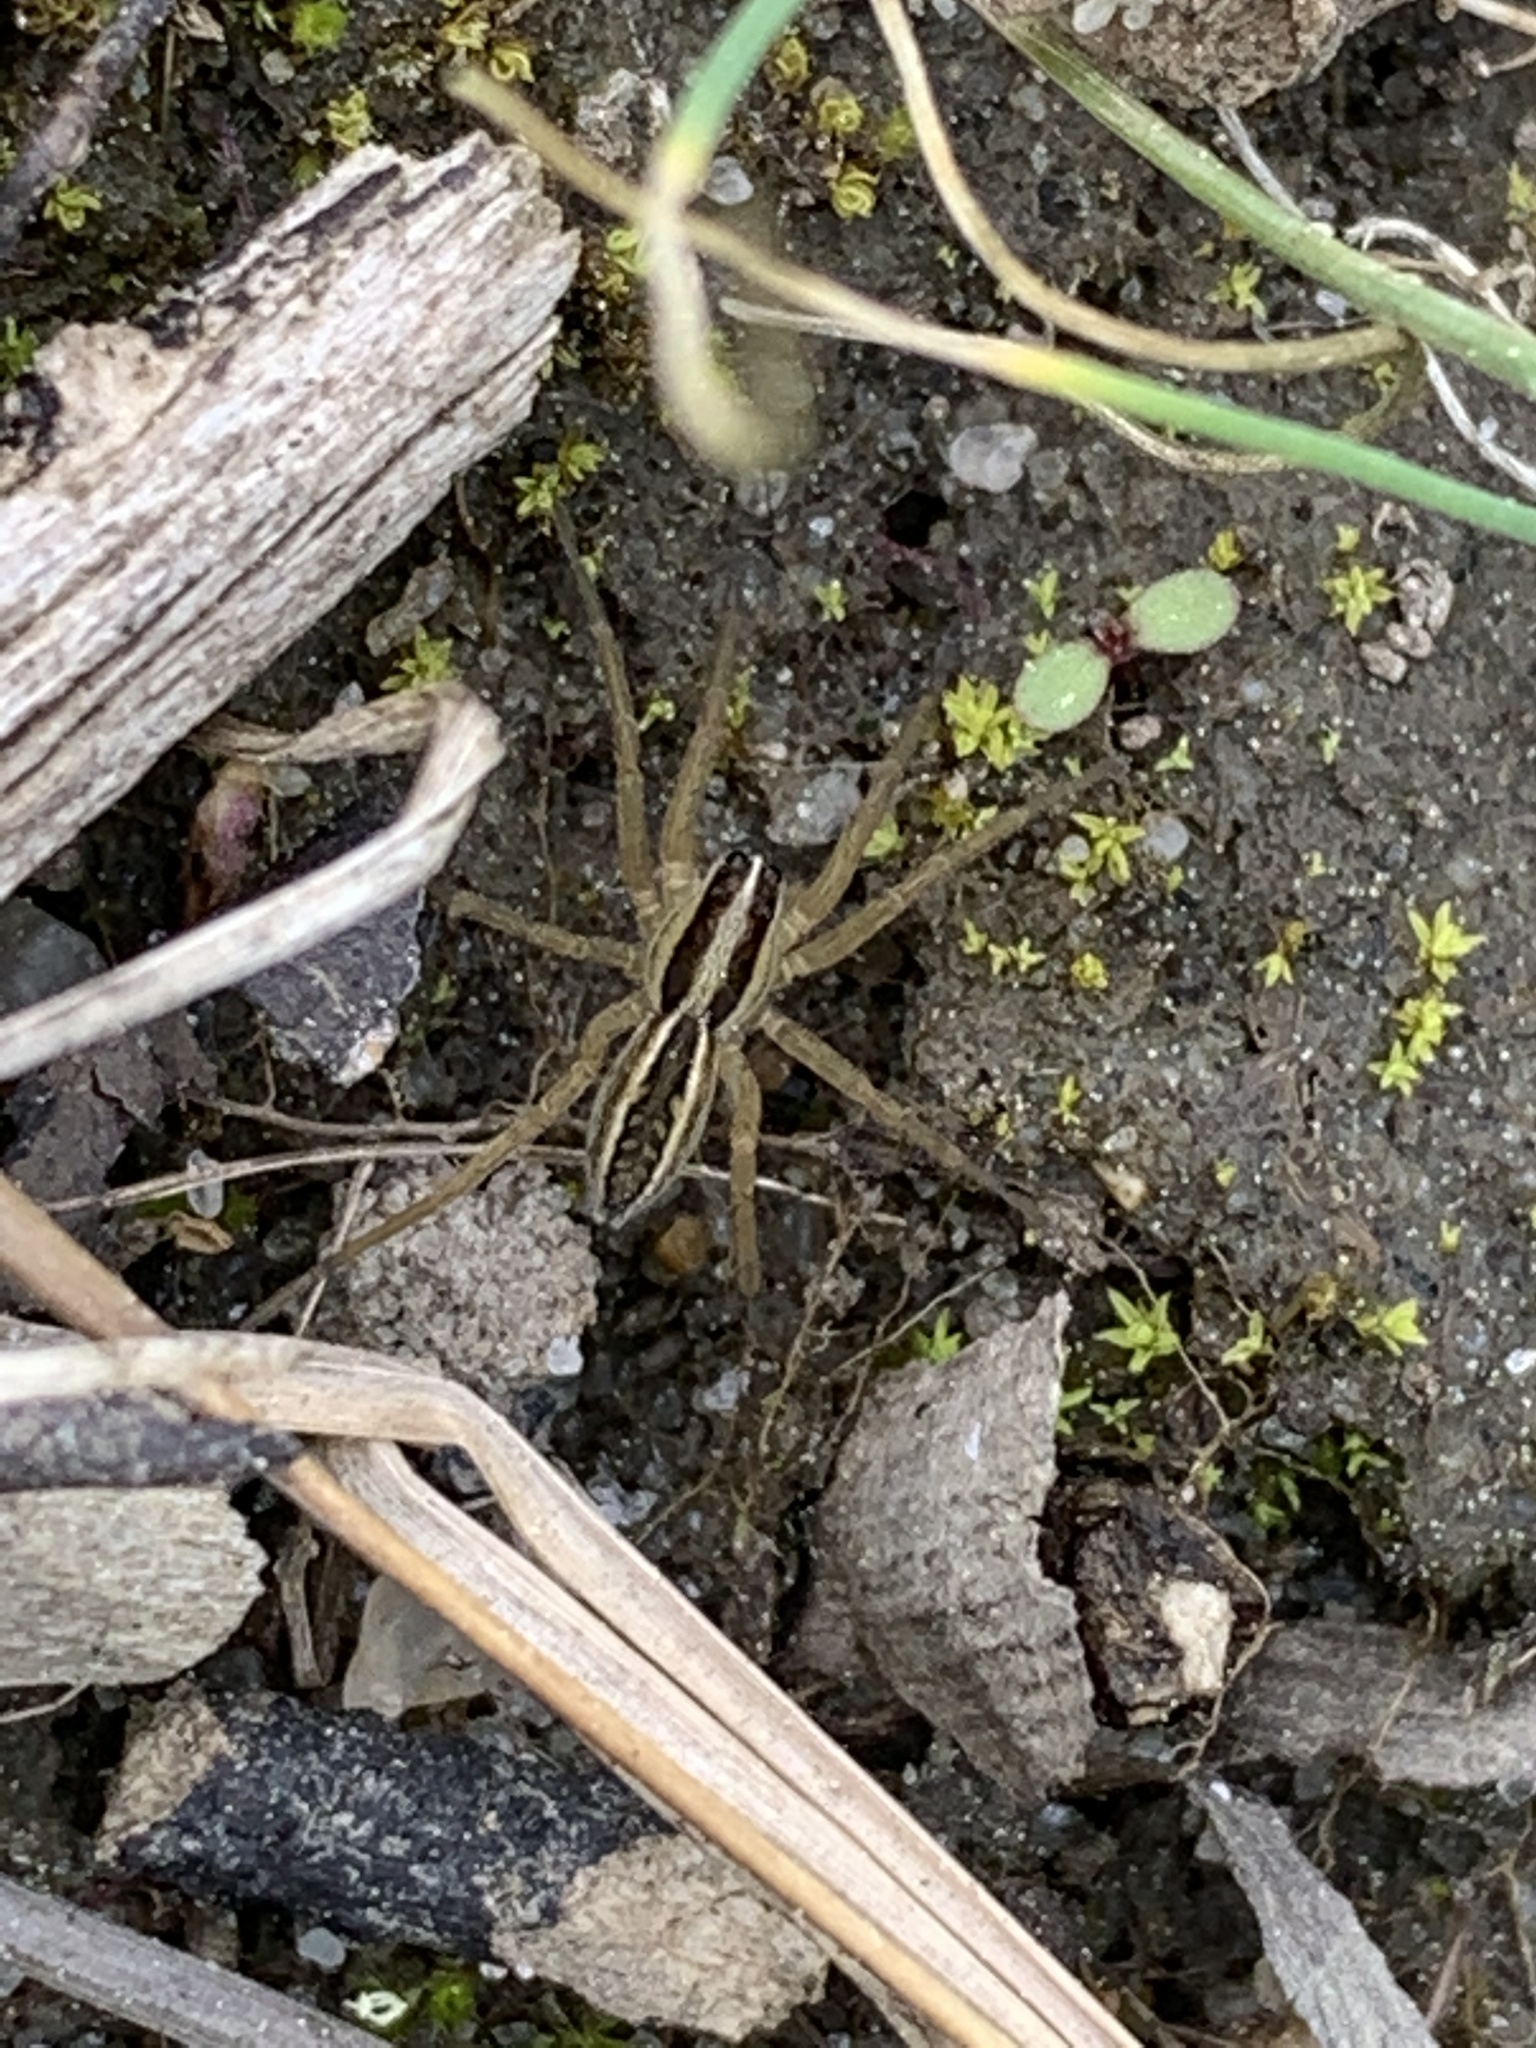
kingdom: Animalia
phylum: Arthropoda
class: Arachnida
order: Araneae
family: Lycosidae
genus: Rabidosa
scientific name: Rabidosa rabida
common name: Rabid wolf spider
